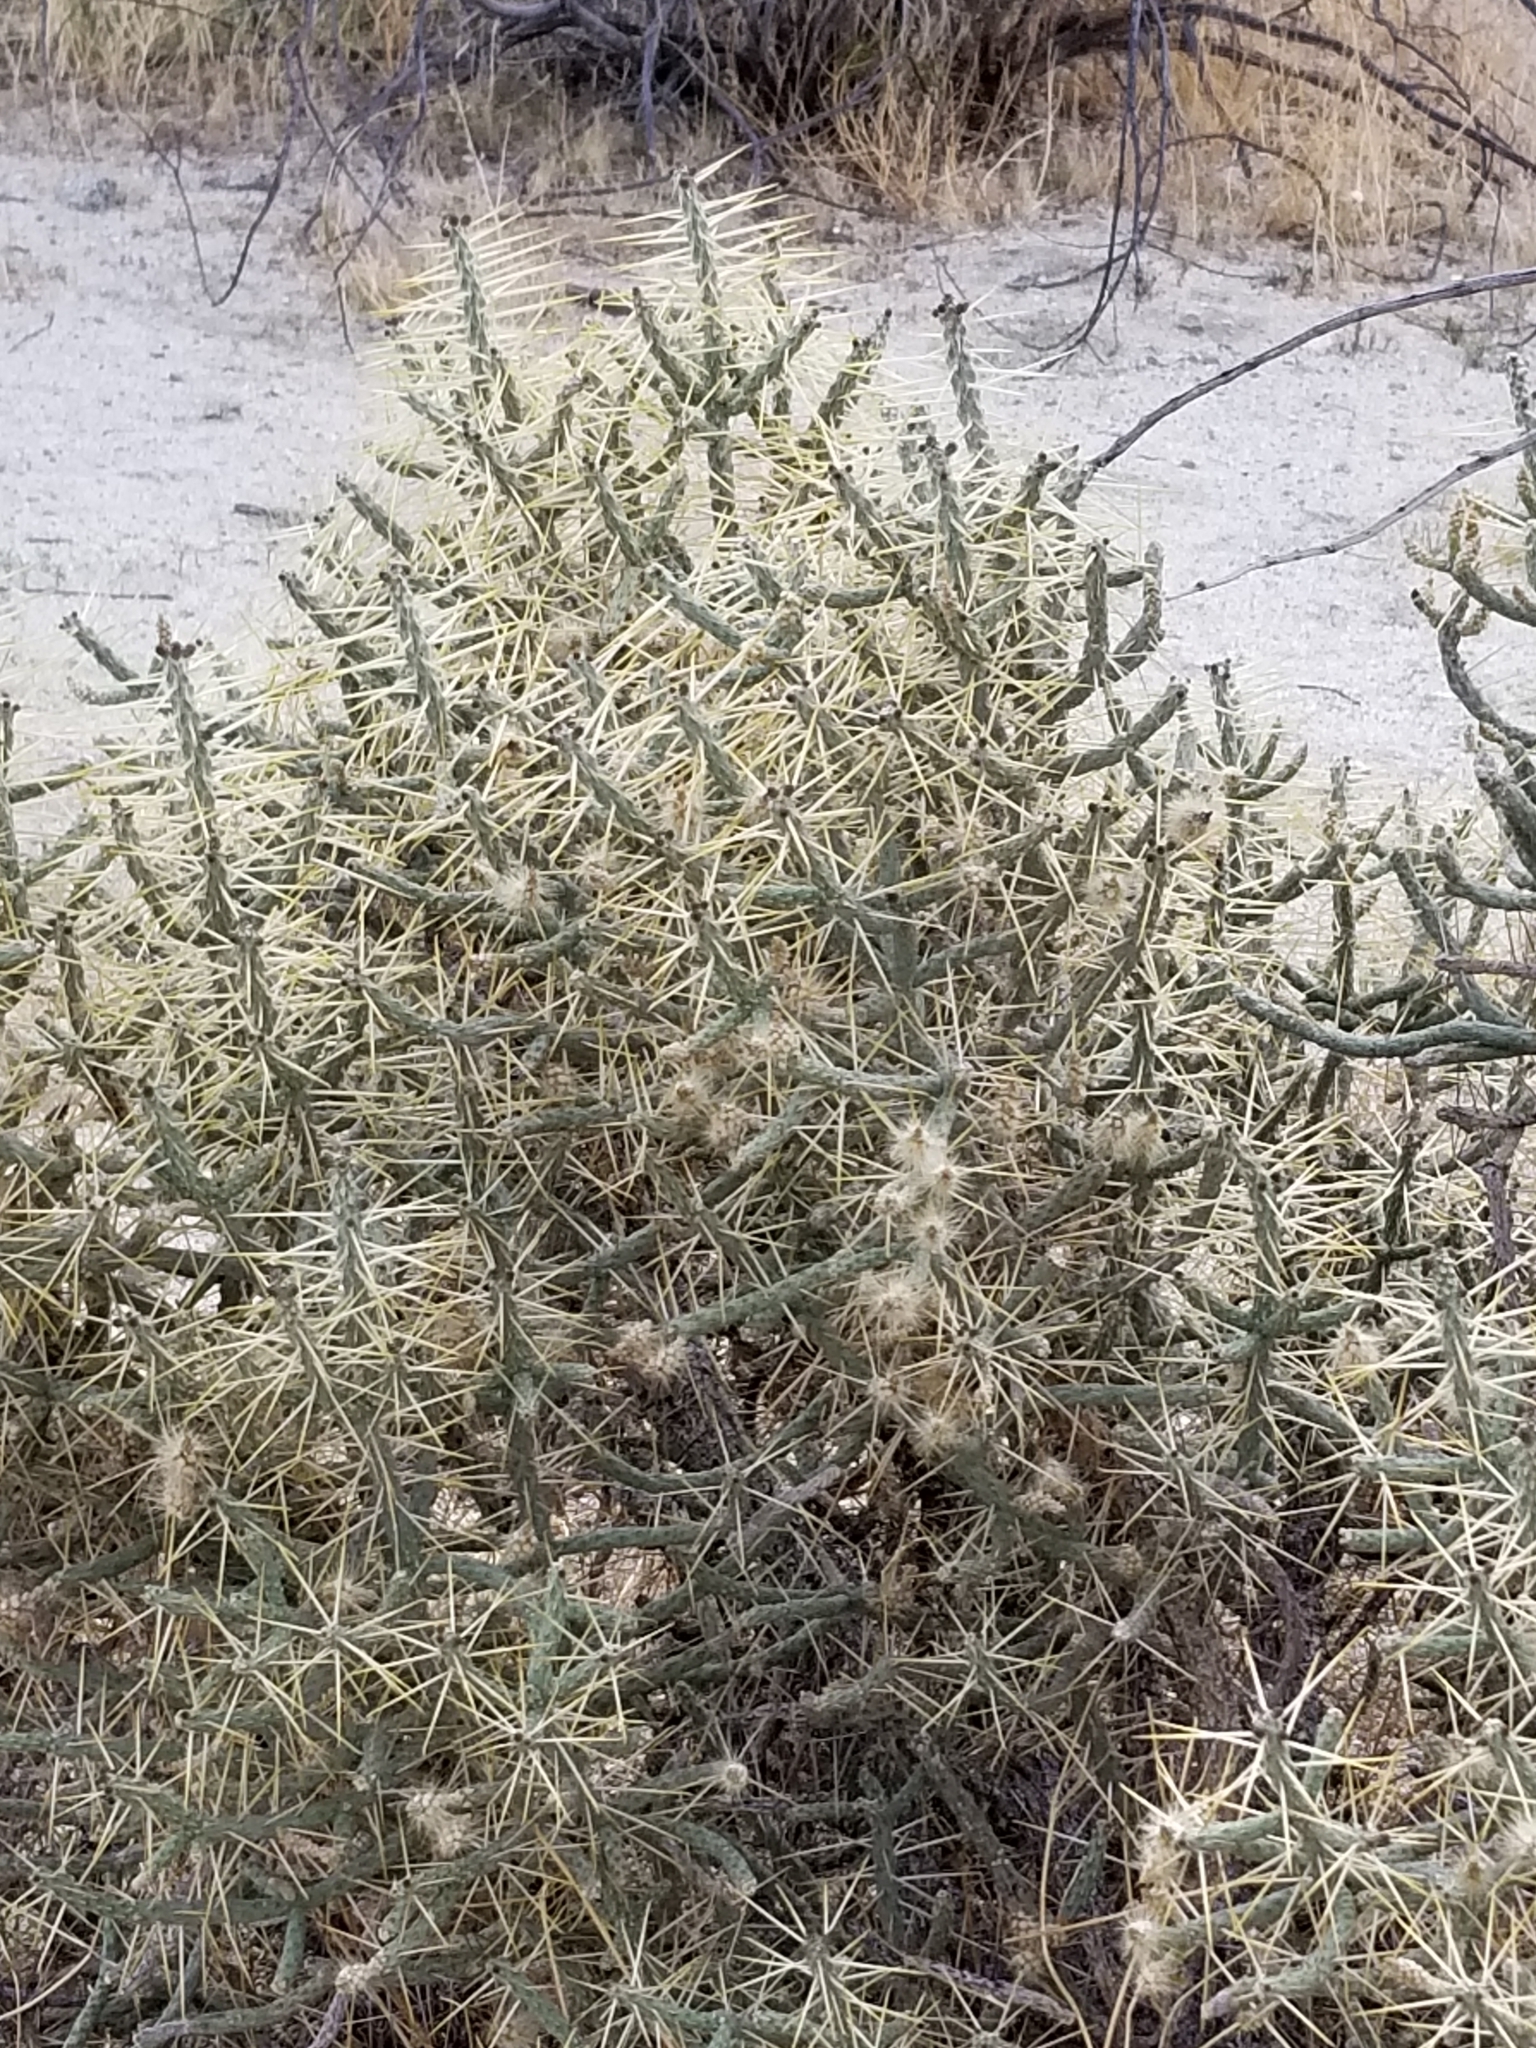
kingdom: Plantae
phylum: Tracheophyta
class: Magnoliopsida
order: Caryophyllales
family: Cactaceae
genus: Cylindropuntia
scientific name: Cylindropuntia ramosissima
